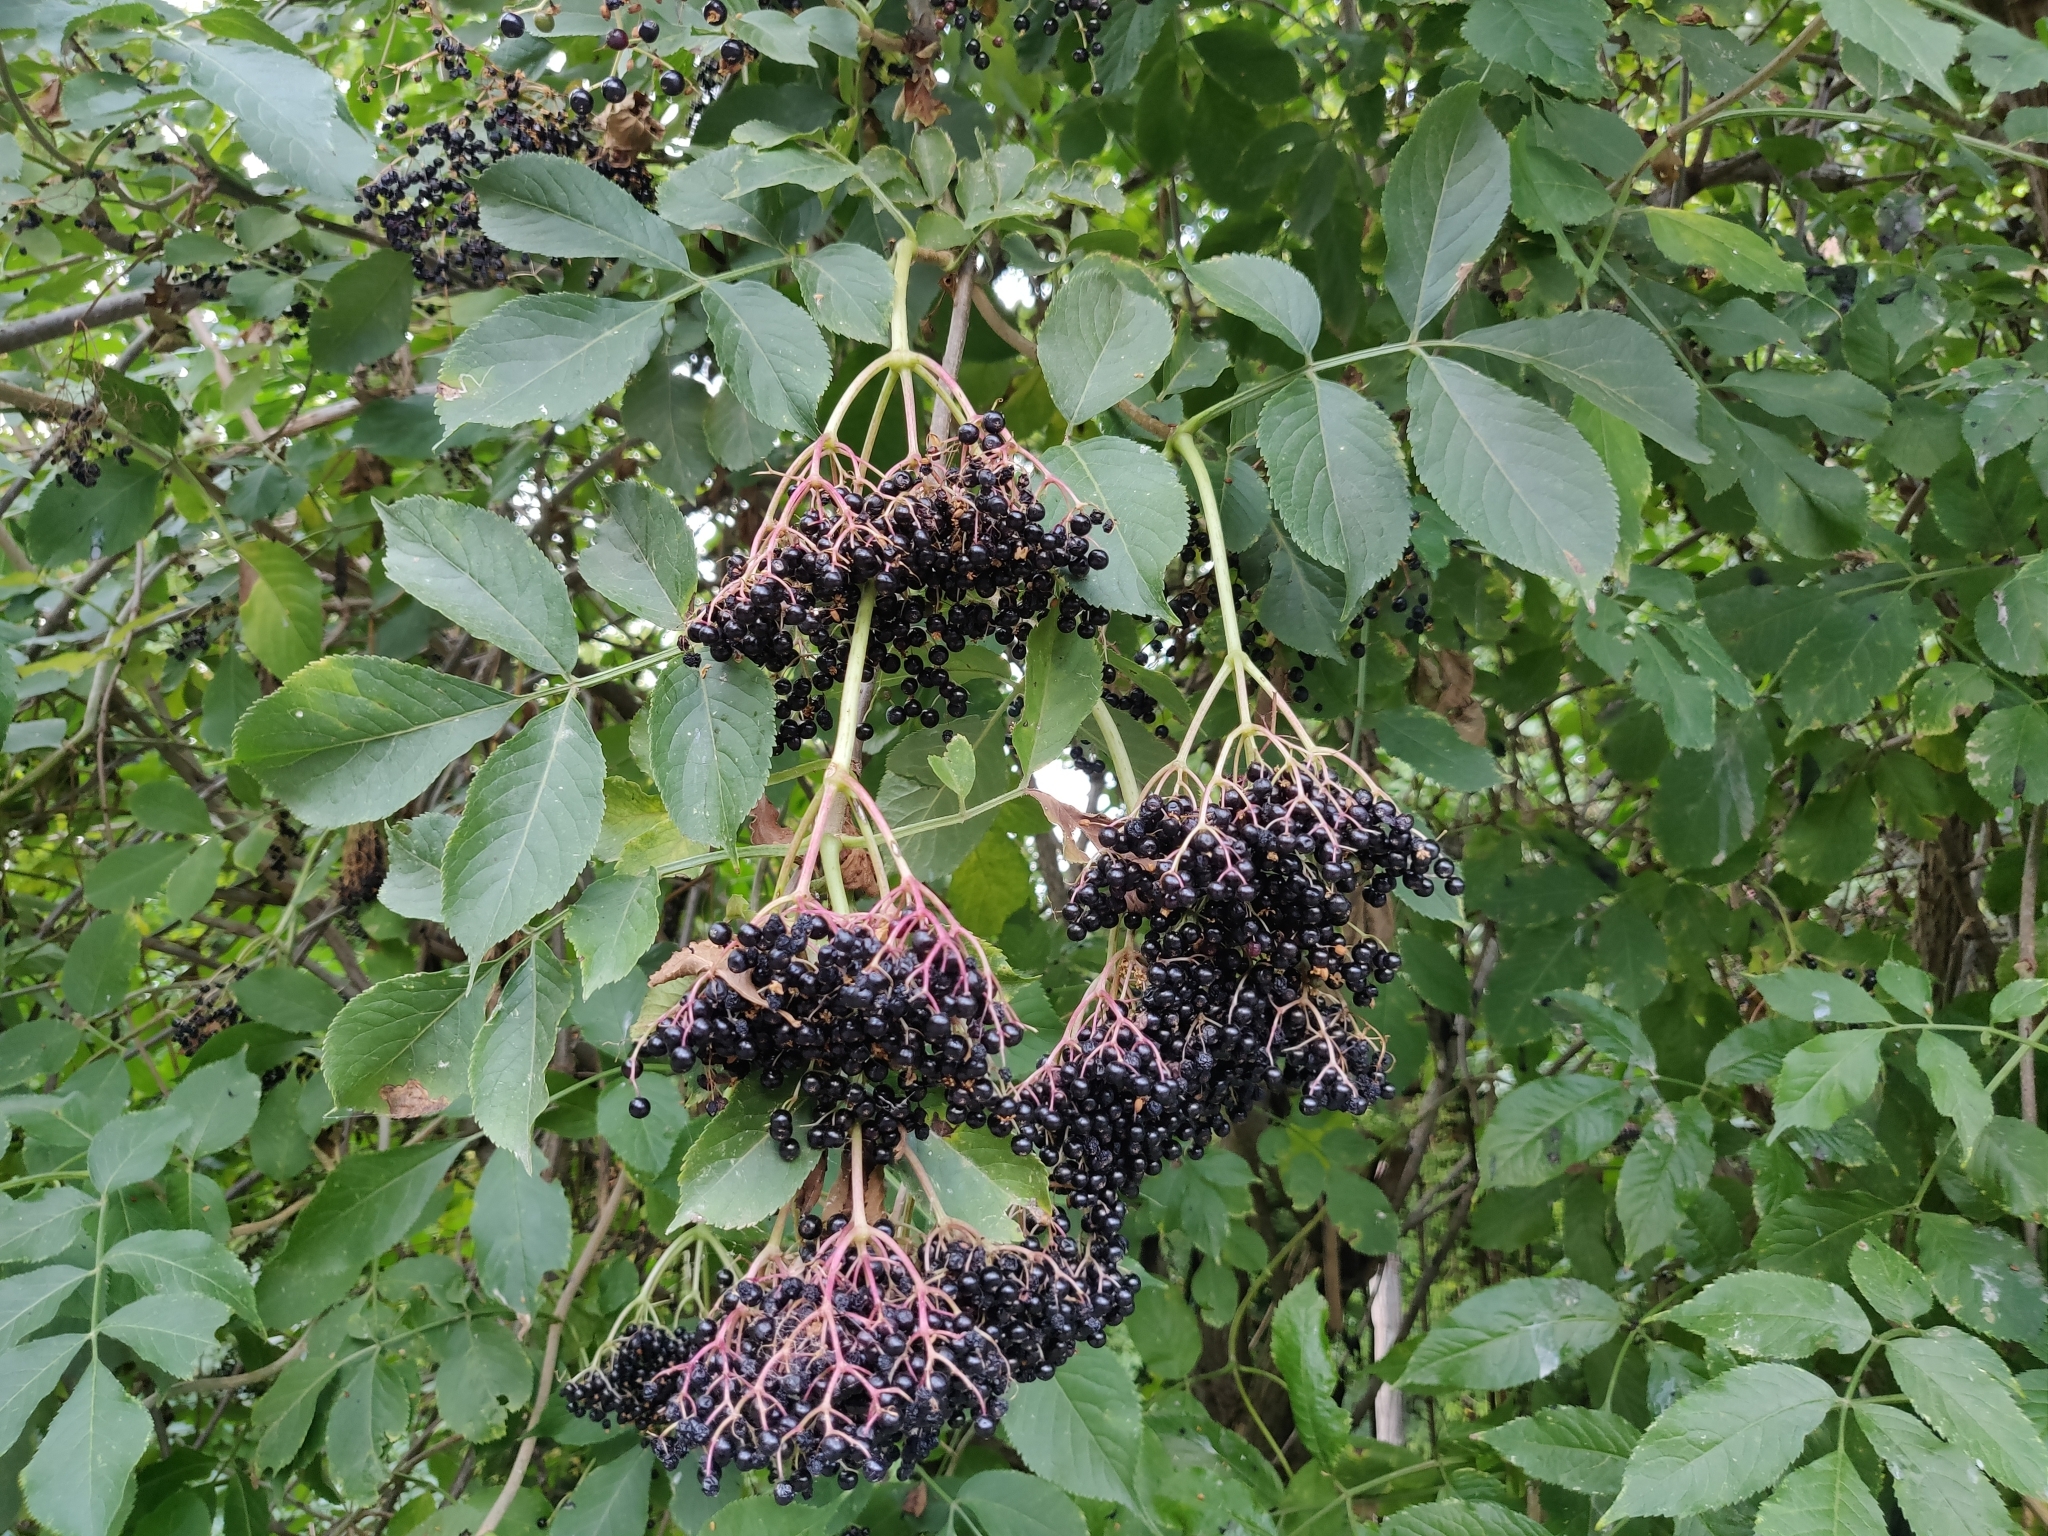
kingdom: Plantae
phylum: Tracheophyta
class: Magnoliopsida
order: Dipsacales
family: Viburnaceae
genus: Sambucus
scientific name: Sambucus nigra
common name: Elder
